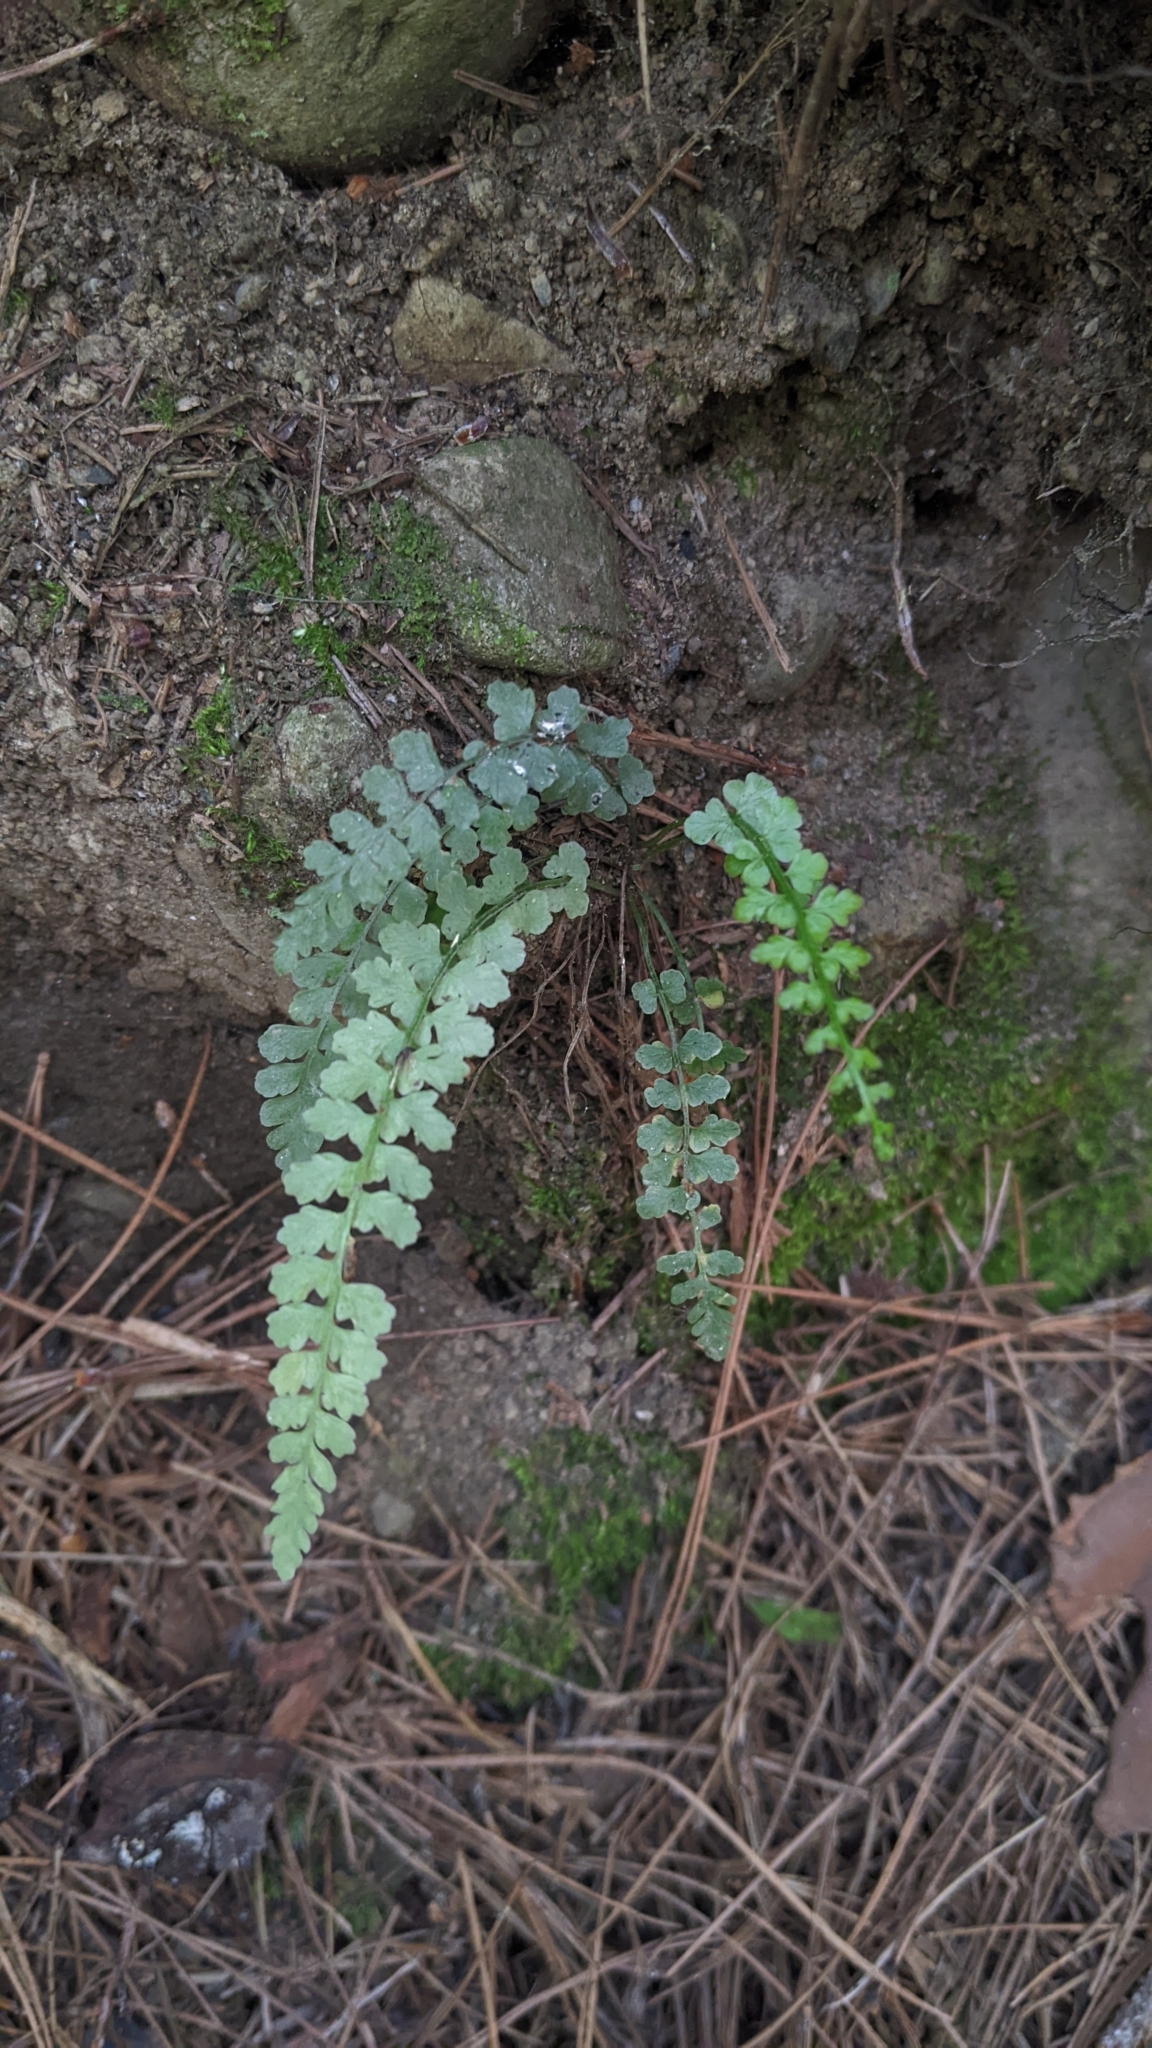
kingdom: Plantae
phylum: Tracheophyta
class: Polypodiopsida
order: Polypodiales
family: Aspleniaceae
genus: Asplenium
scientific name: Asplenium incisum
